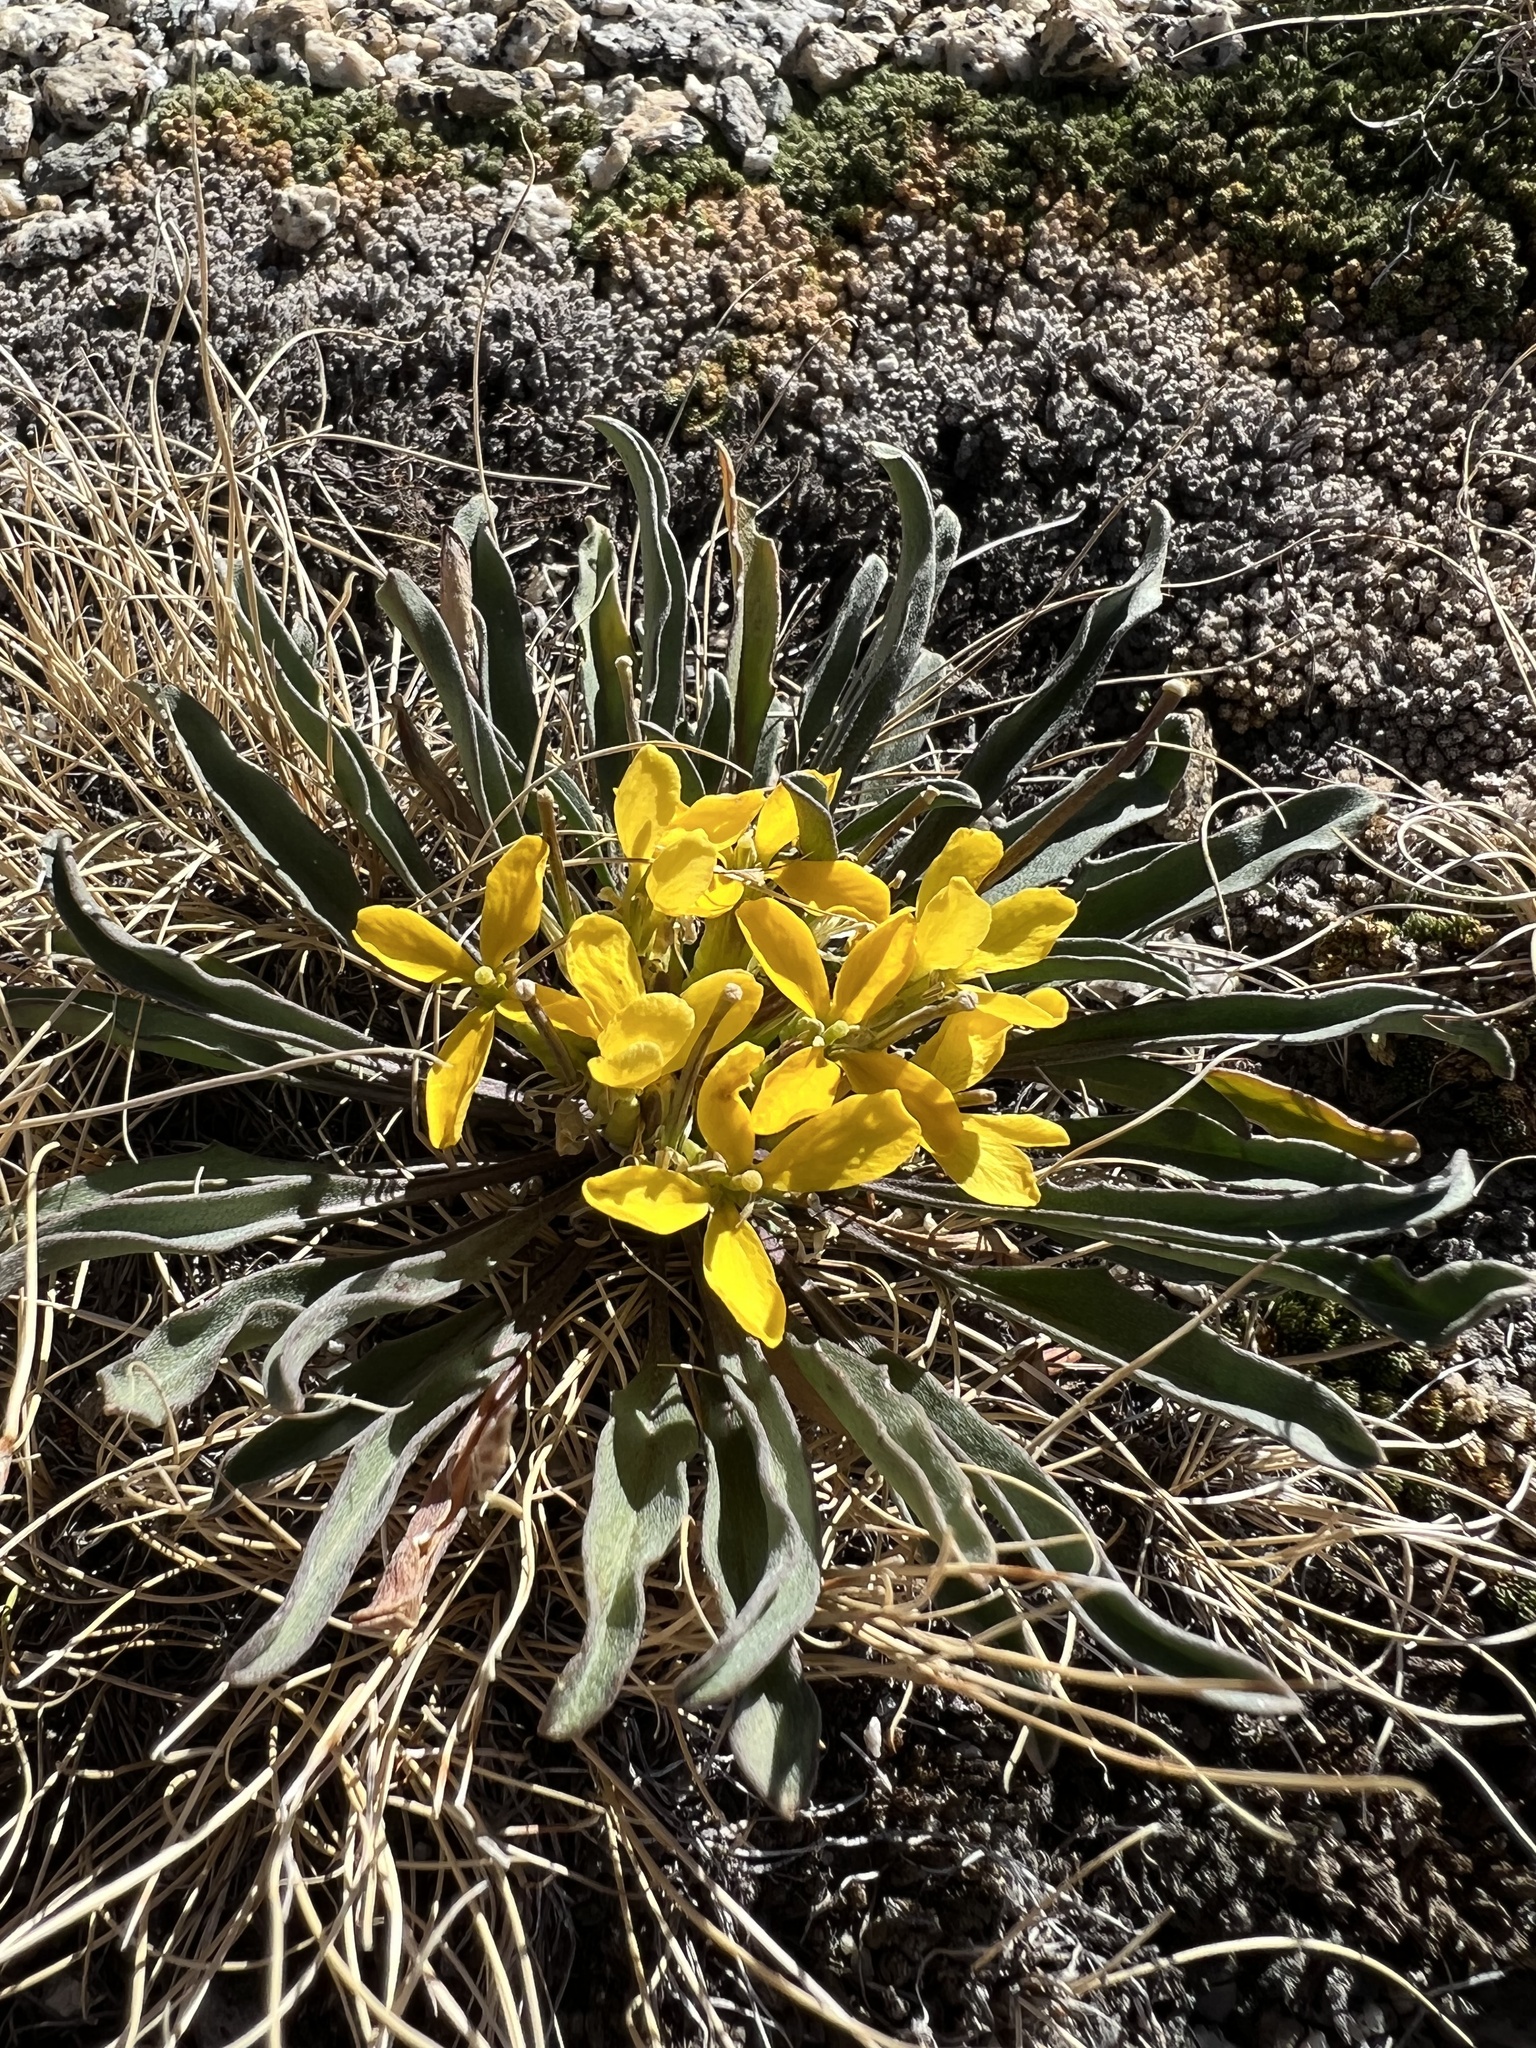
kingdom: Plantae
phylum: Tracheophyta
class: Magnoliopsida
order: Brassicales
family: Brassicaceae
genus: Erysimum
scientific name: Erysimum perenne
